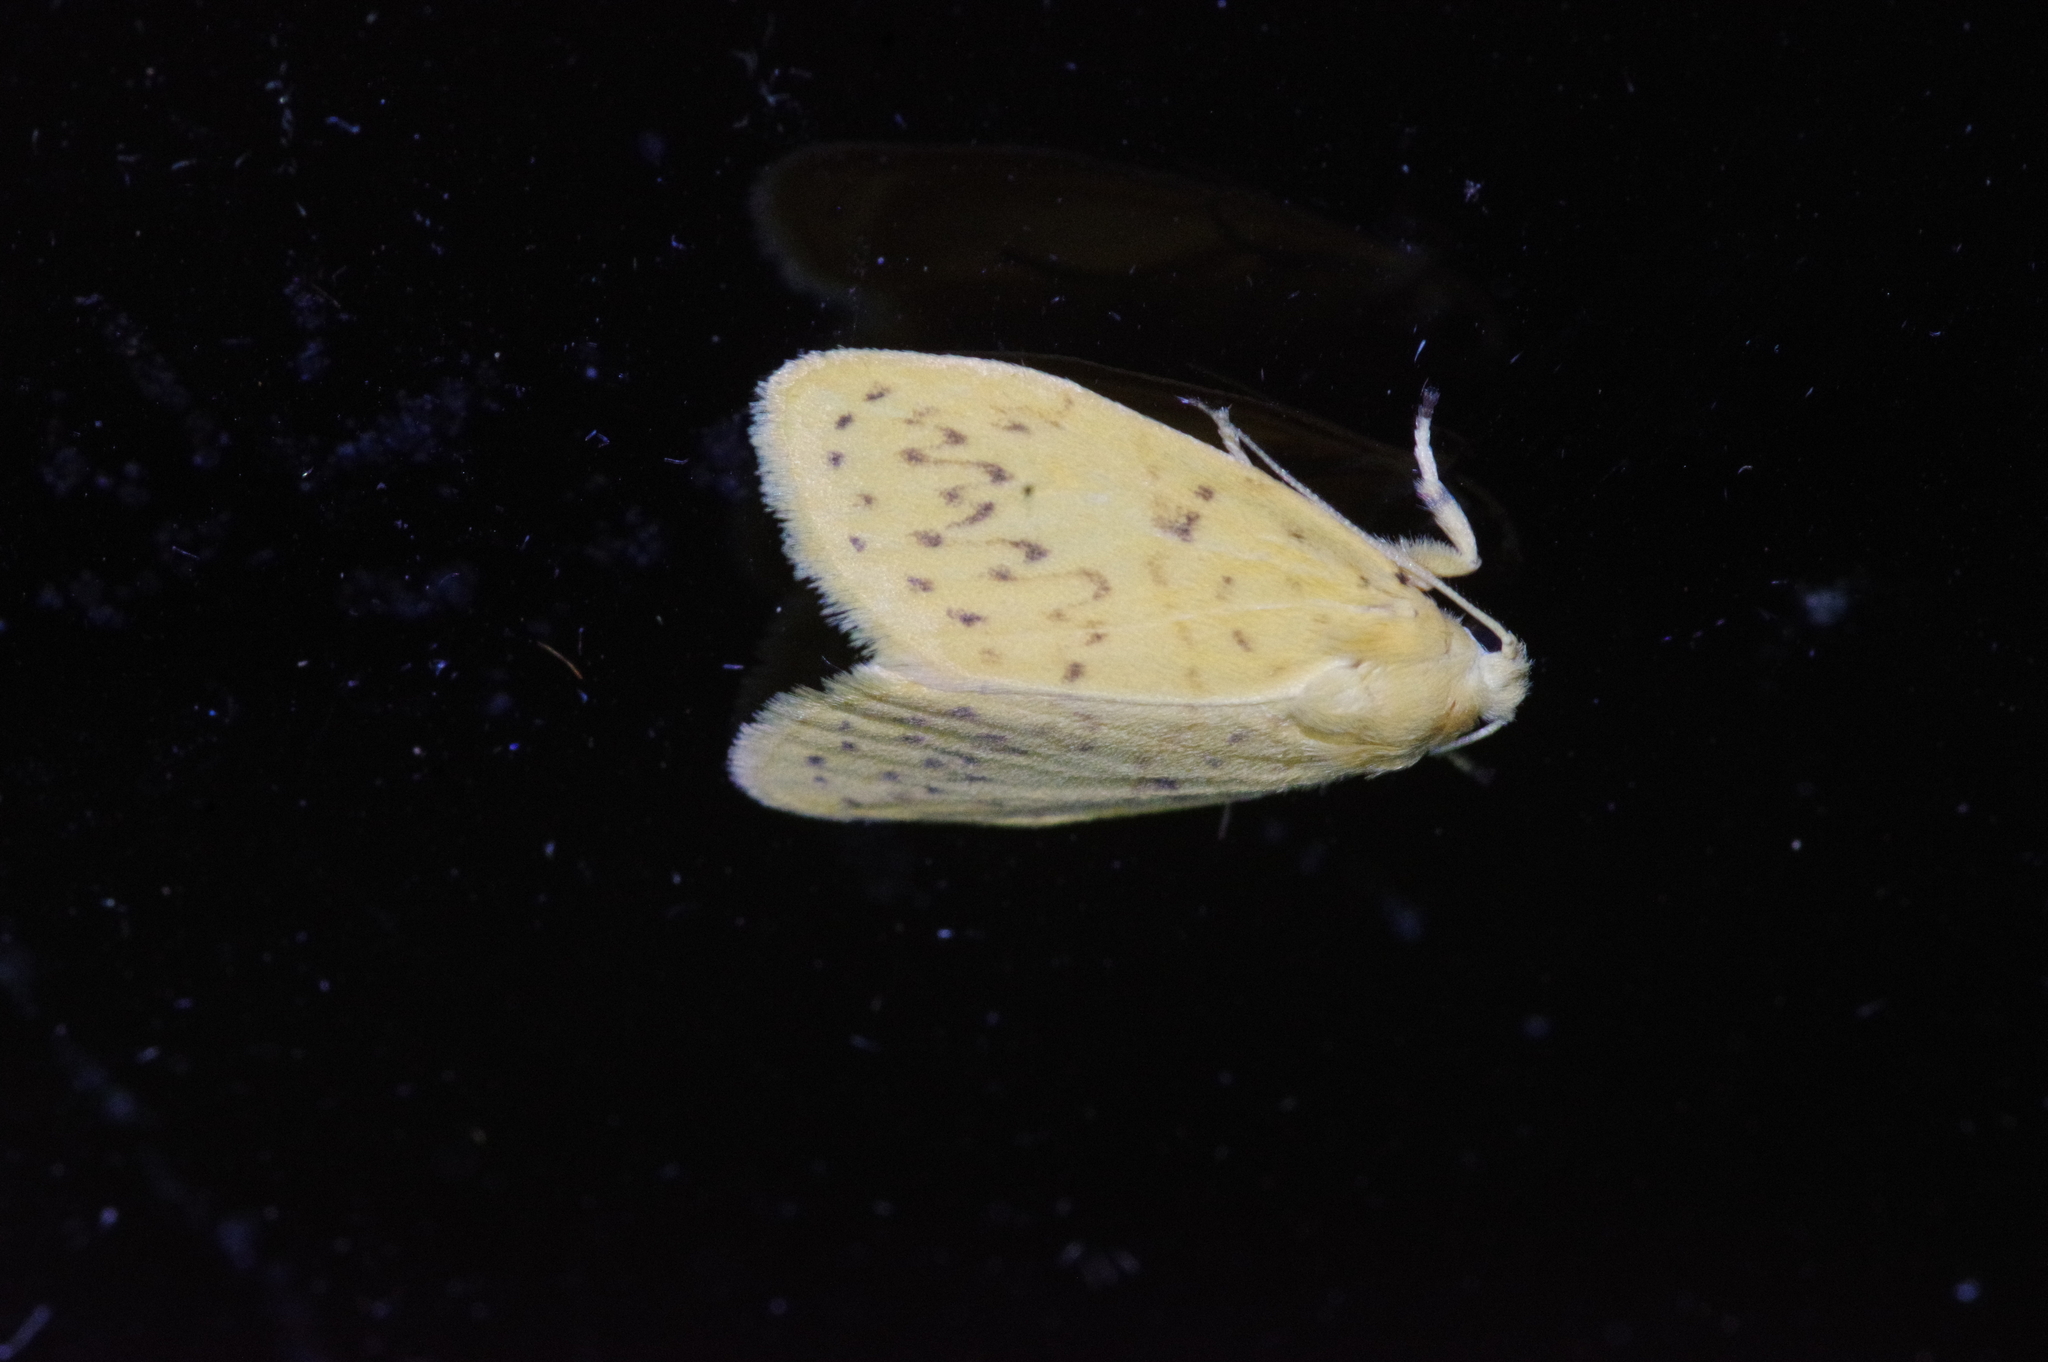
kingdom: Animalia
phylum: Arthropoda
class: Insecta
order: Lepidoptera
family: Erebidae
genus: Huangilene
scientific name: Huangilene alikangiae
